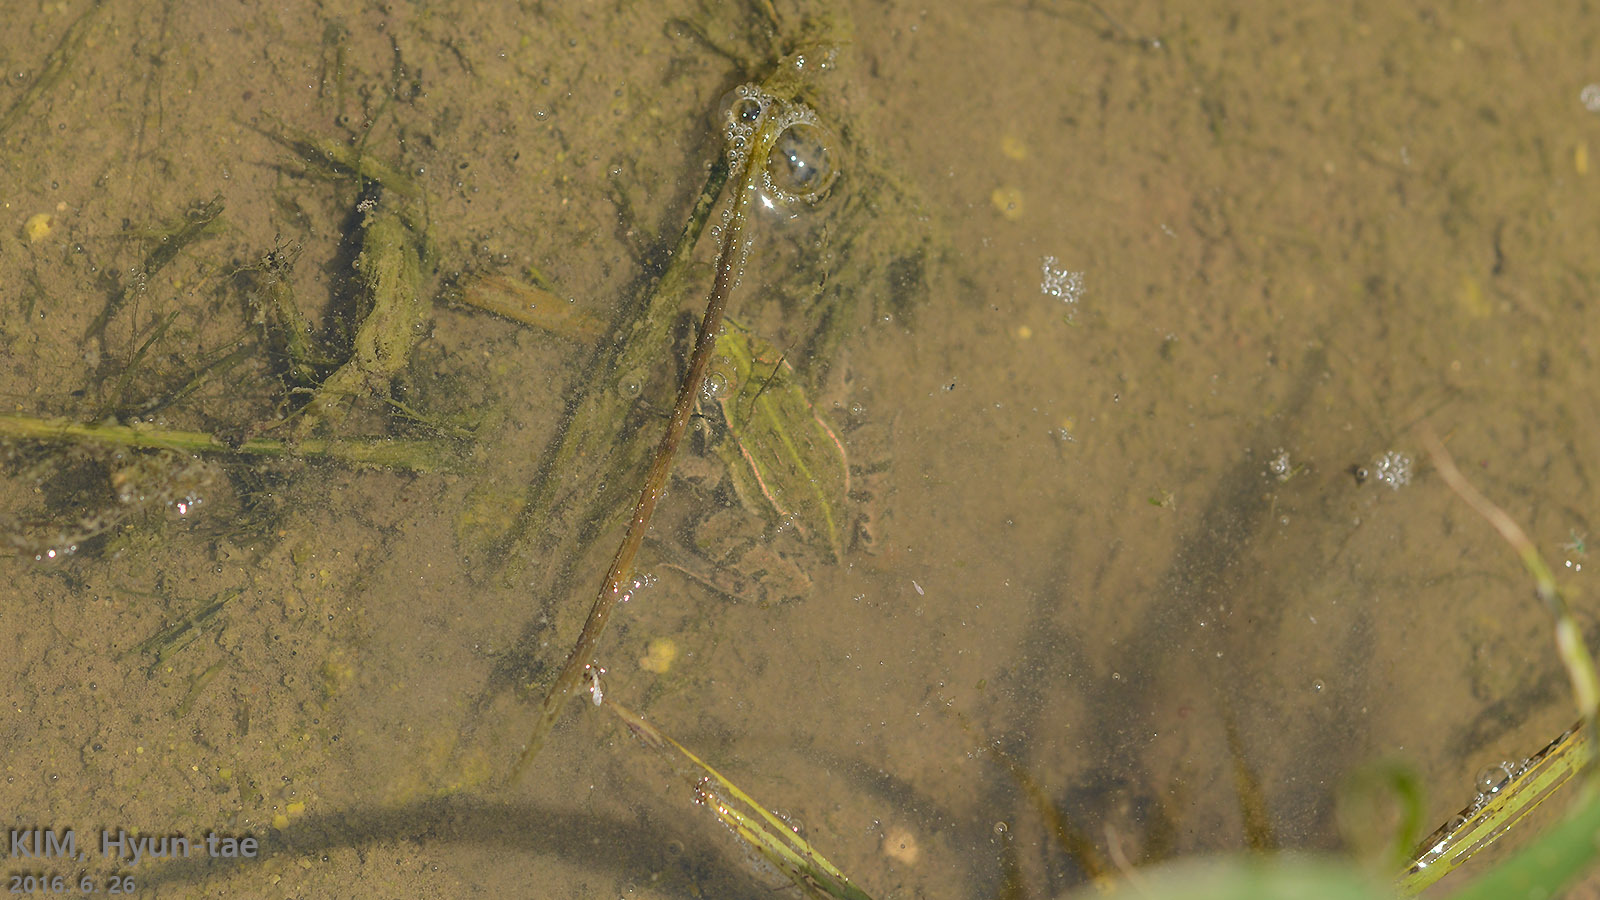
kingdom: Animalia
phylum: Chordata
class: Amphibia
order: Anura
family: Ranidae
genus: Pelophylax
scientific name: Pelophylax nigromaculatus
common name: Black-spotted pond frog
